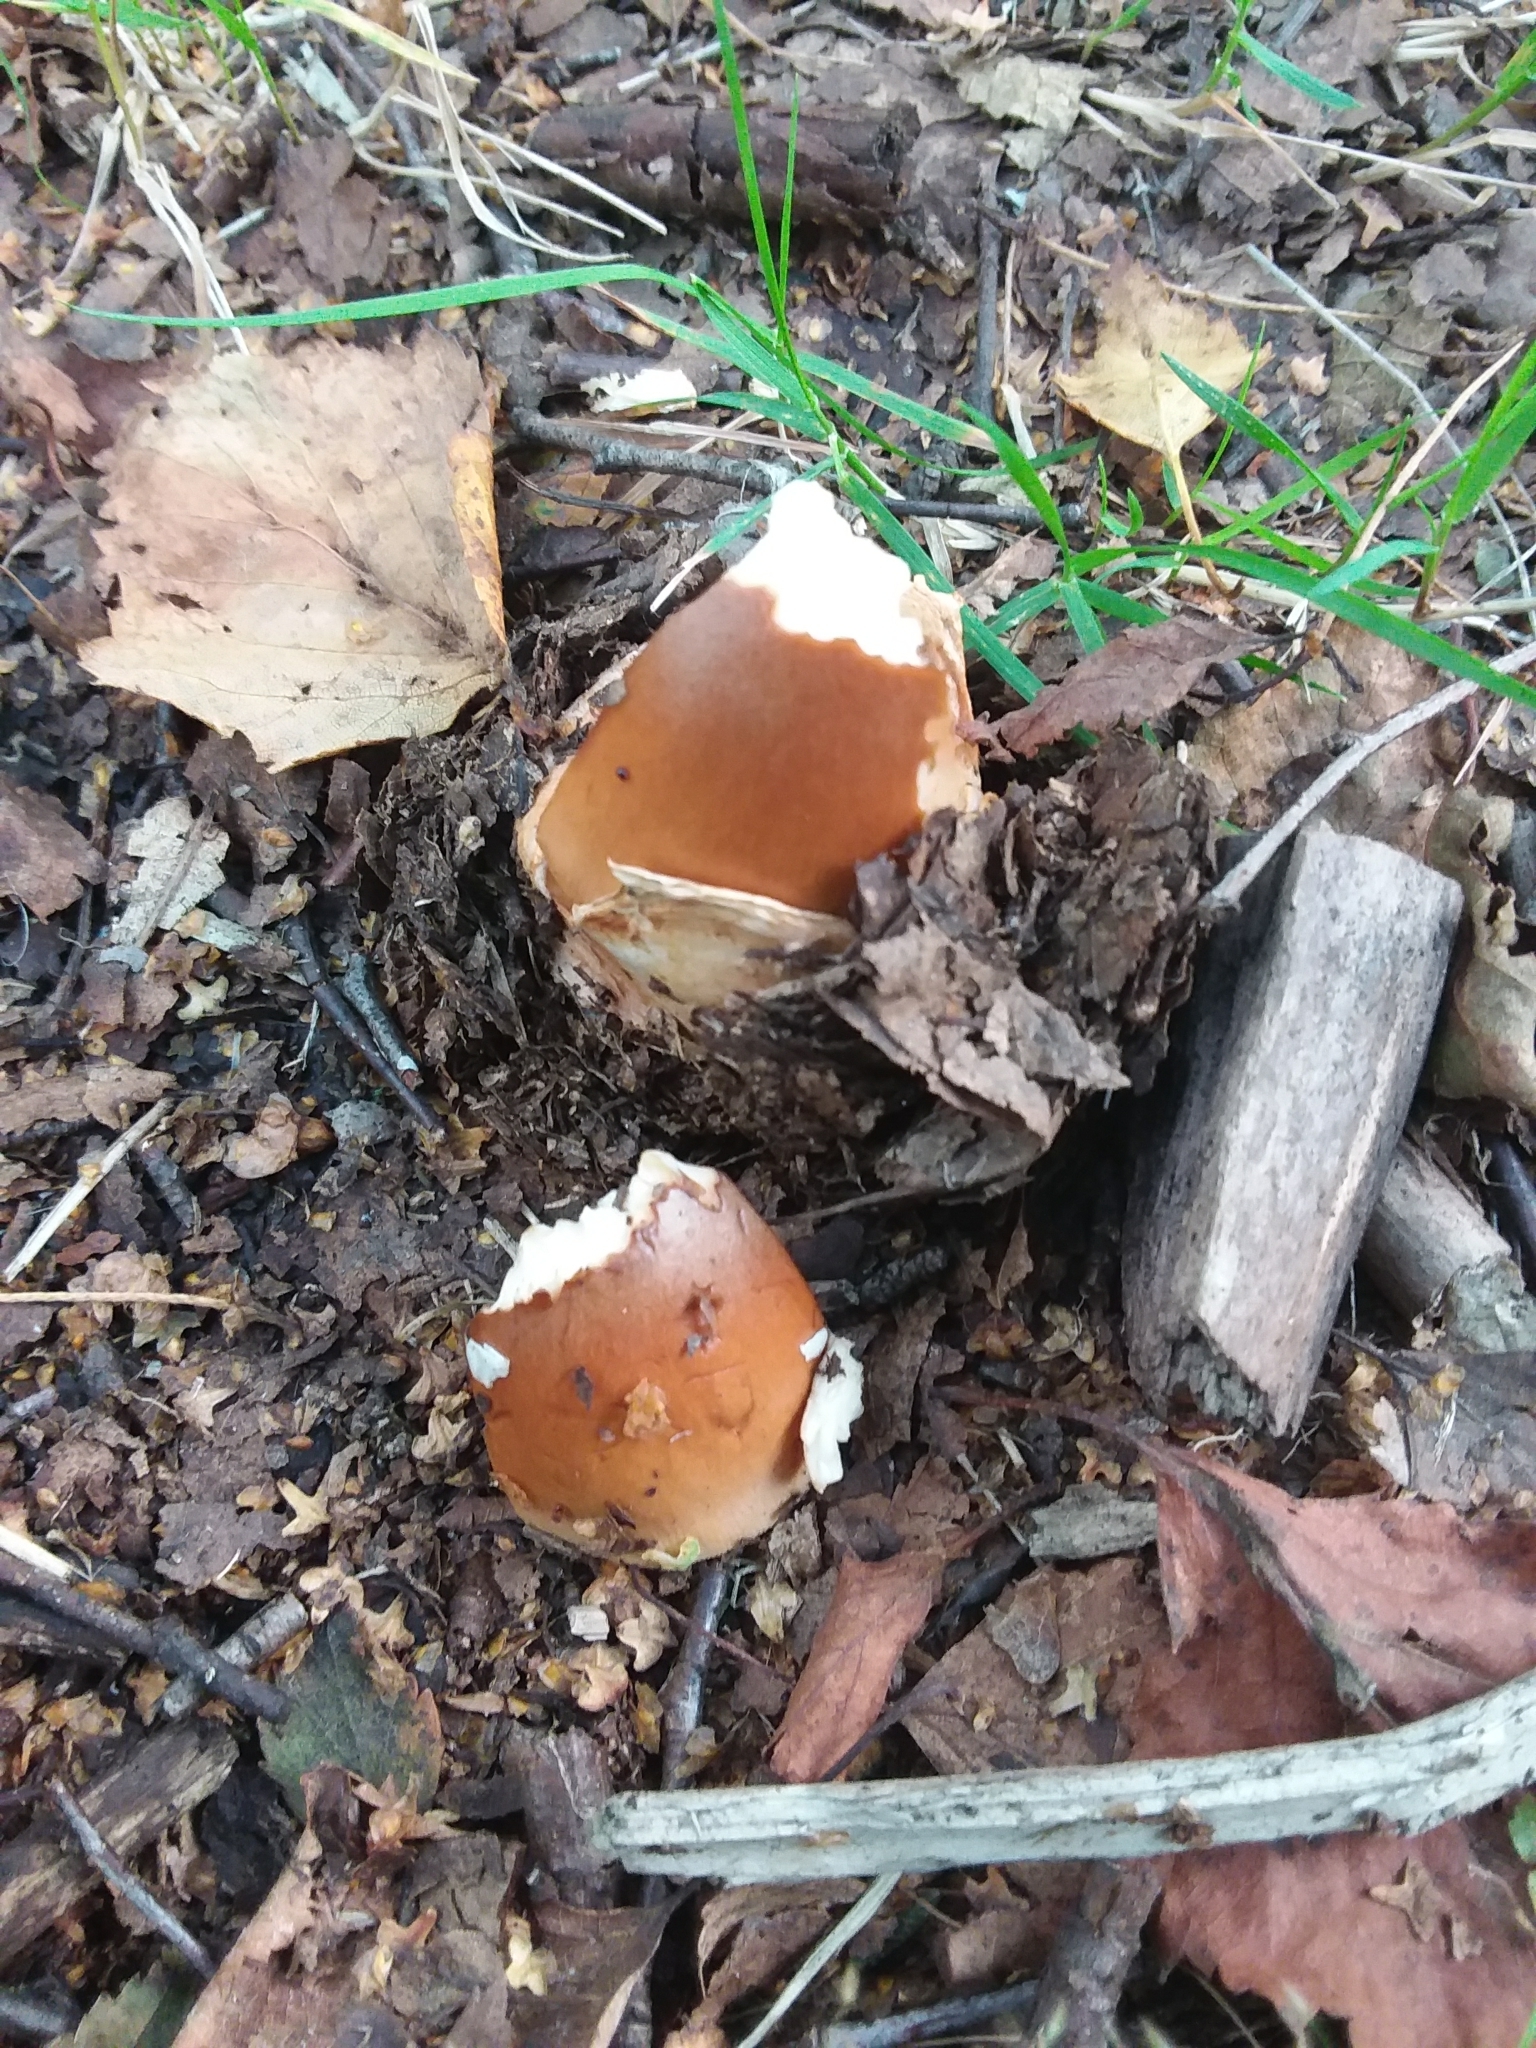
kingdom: Fungi
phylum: Basidiomycota
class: Agaricomycetes
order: Agaricales
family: Amanitaceae
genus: Amanita
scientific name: Amanita fulva
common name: Tawny grisette
